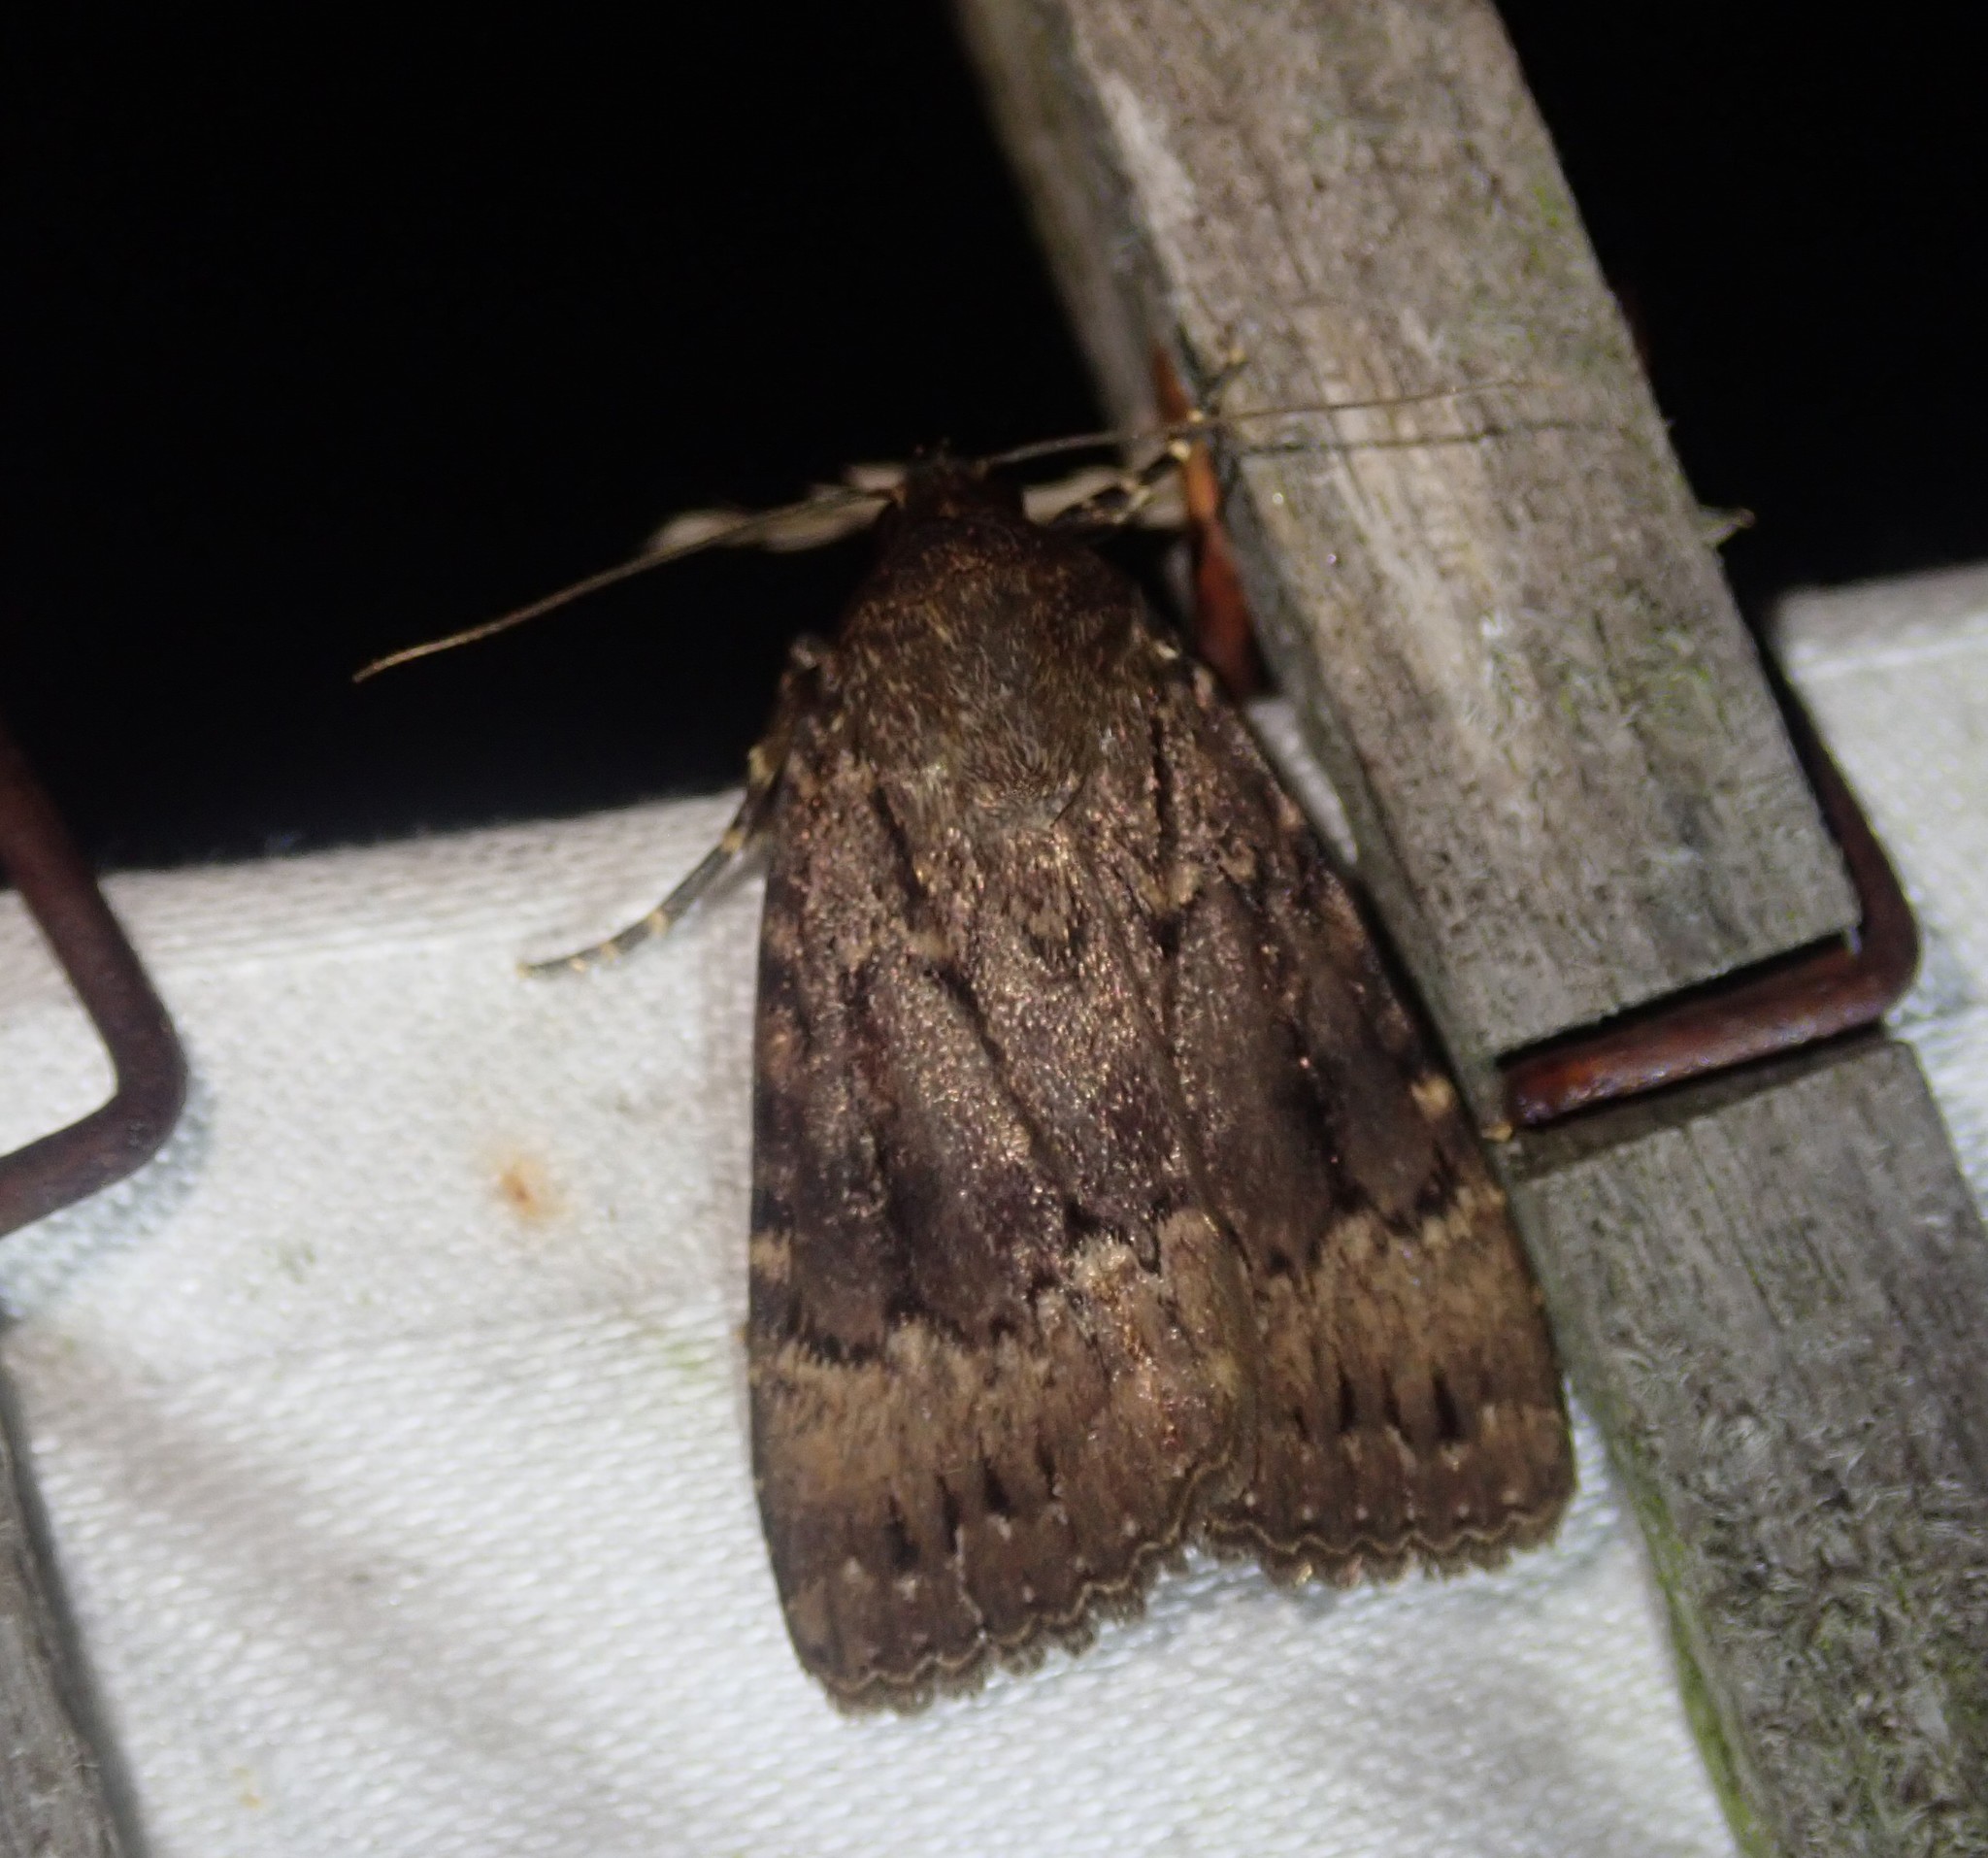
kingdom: Animalia
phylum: Arthropoda
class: Insecta
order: Lepidoptera
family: Noctuidae
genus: Amphipyra
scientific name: Amphipyra pyramidea
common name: Copper underwing
